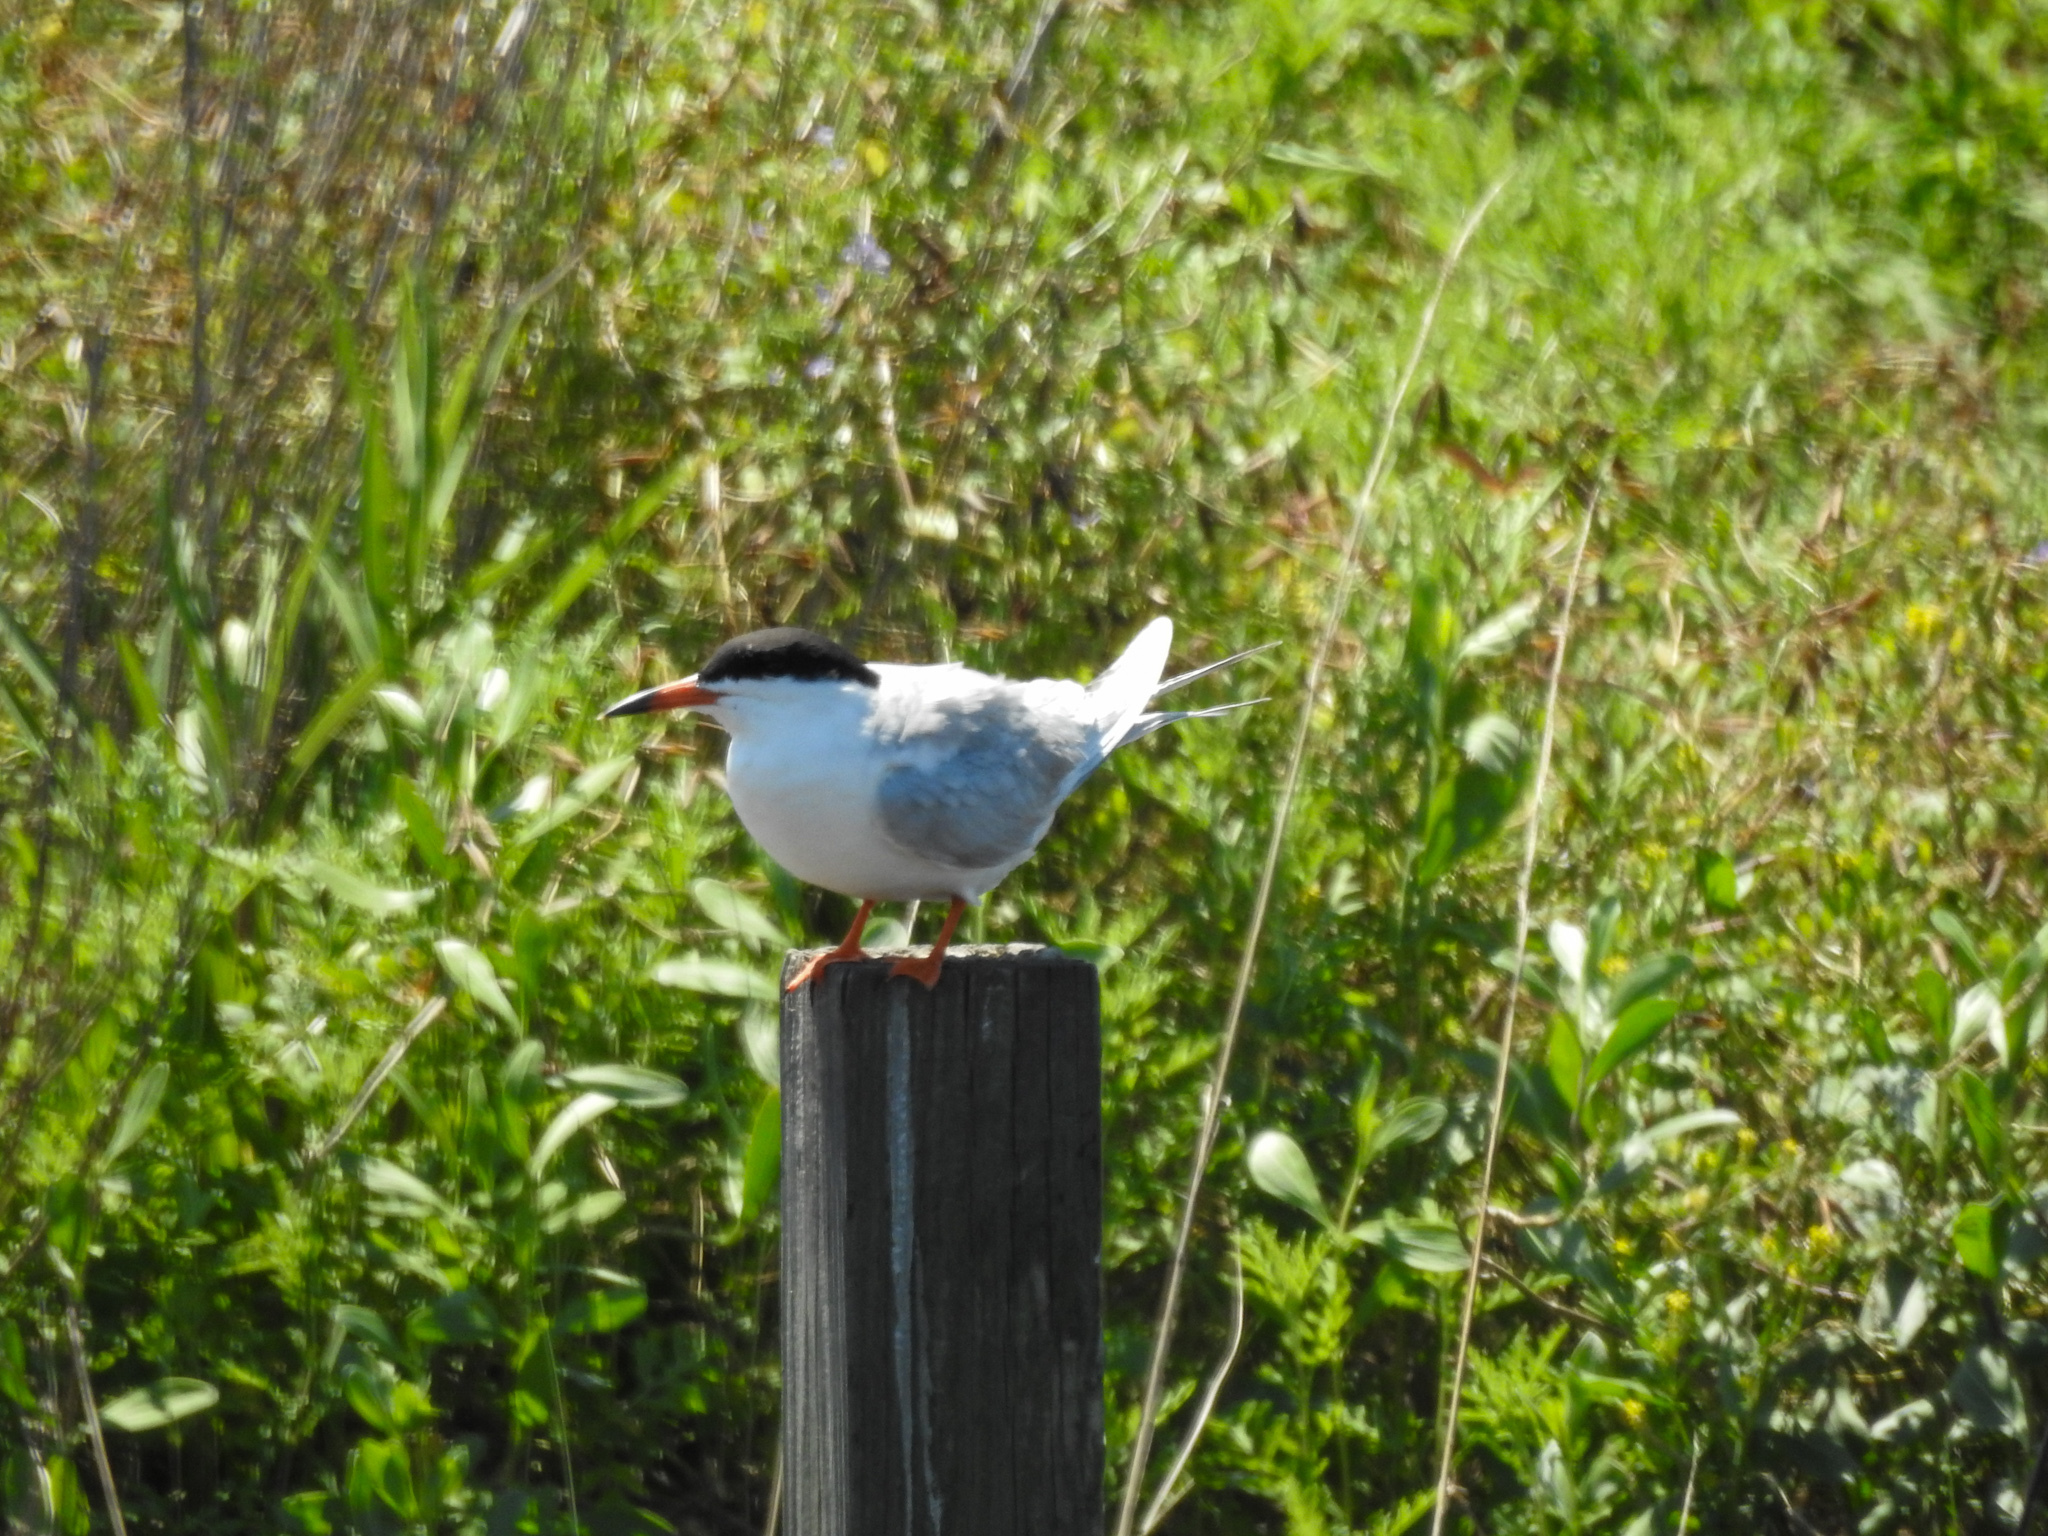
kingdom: Animalia
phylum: Chordata
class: Aves
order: Charadriiformes
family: Laridae
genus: Sterna
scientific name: Sterna forsteri
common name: Forster's tern
